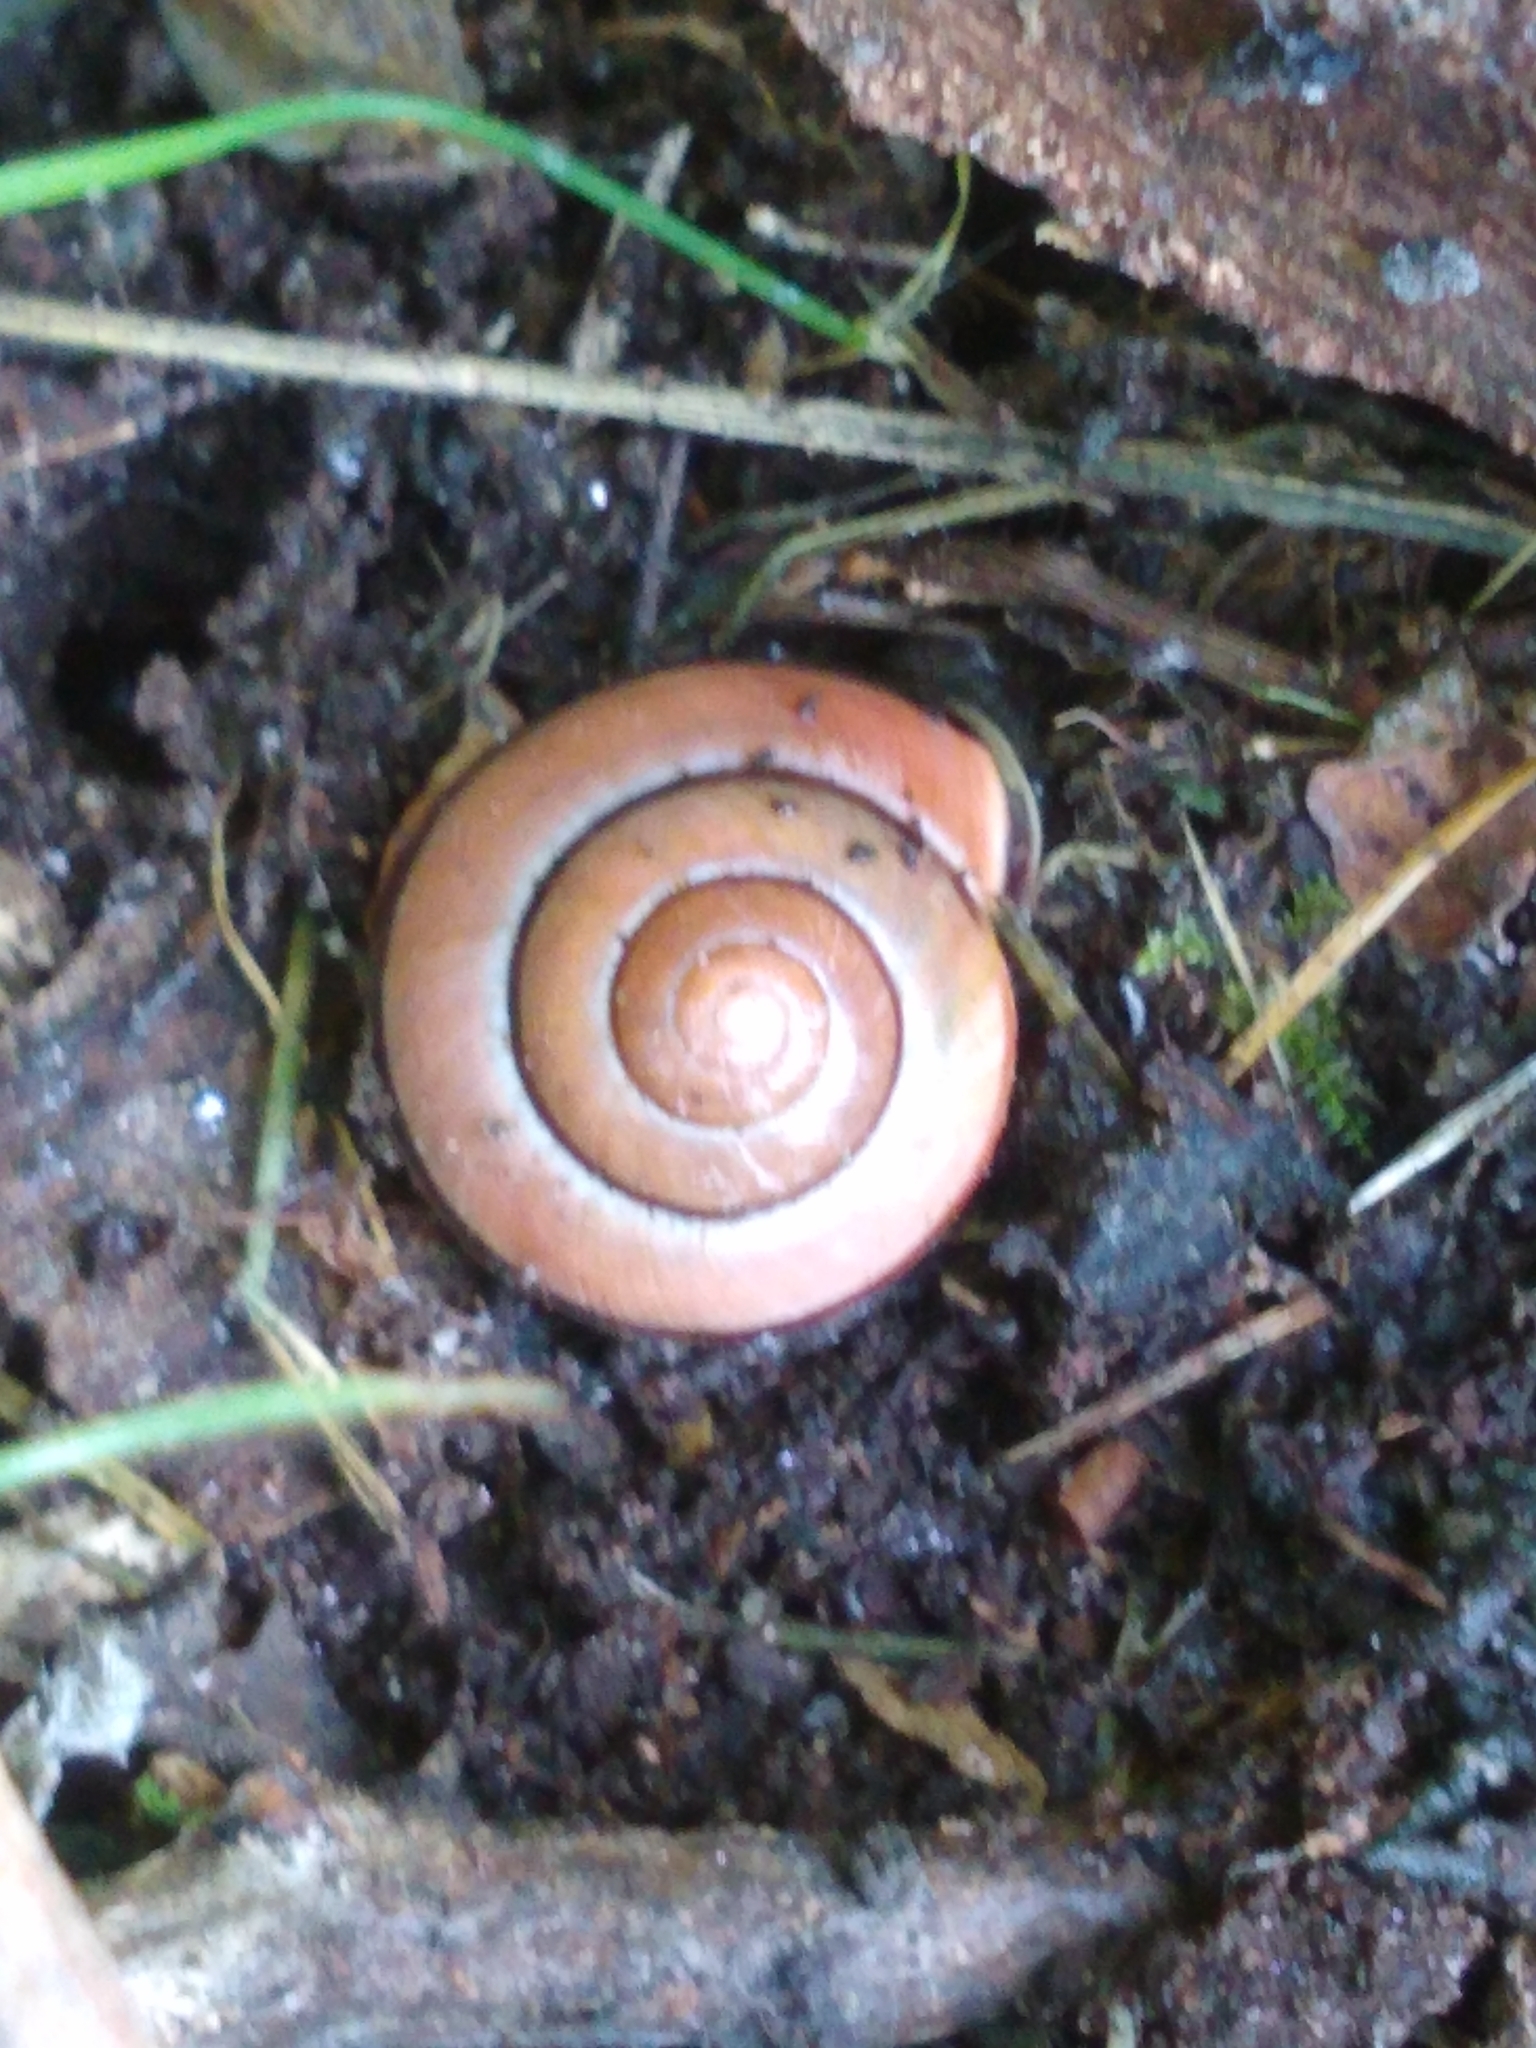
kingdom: Animalia
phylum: Mollusca
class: Gastropoda
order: Stylommatophora
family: Helicidae
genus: Cepaea
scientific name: Cepaea nemoralis
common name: Grovesnail
